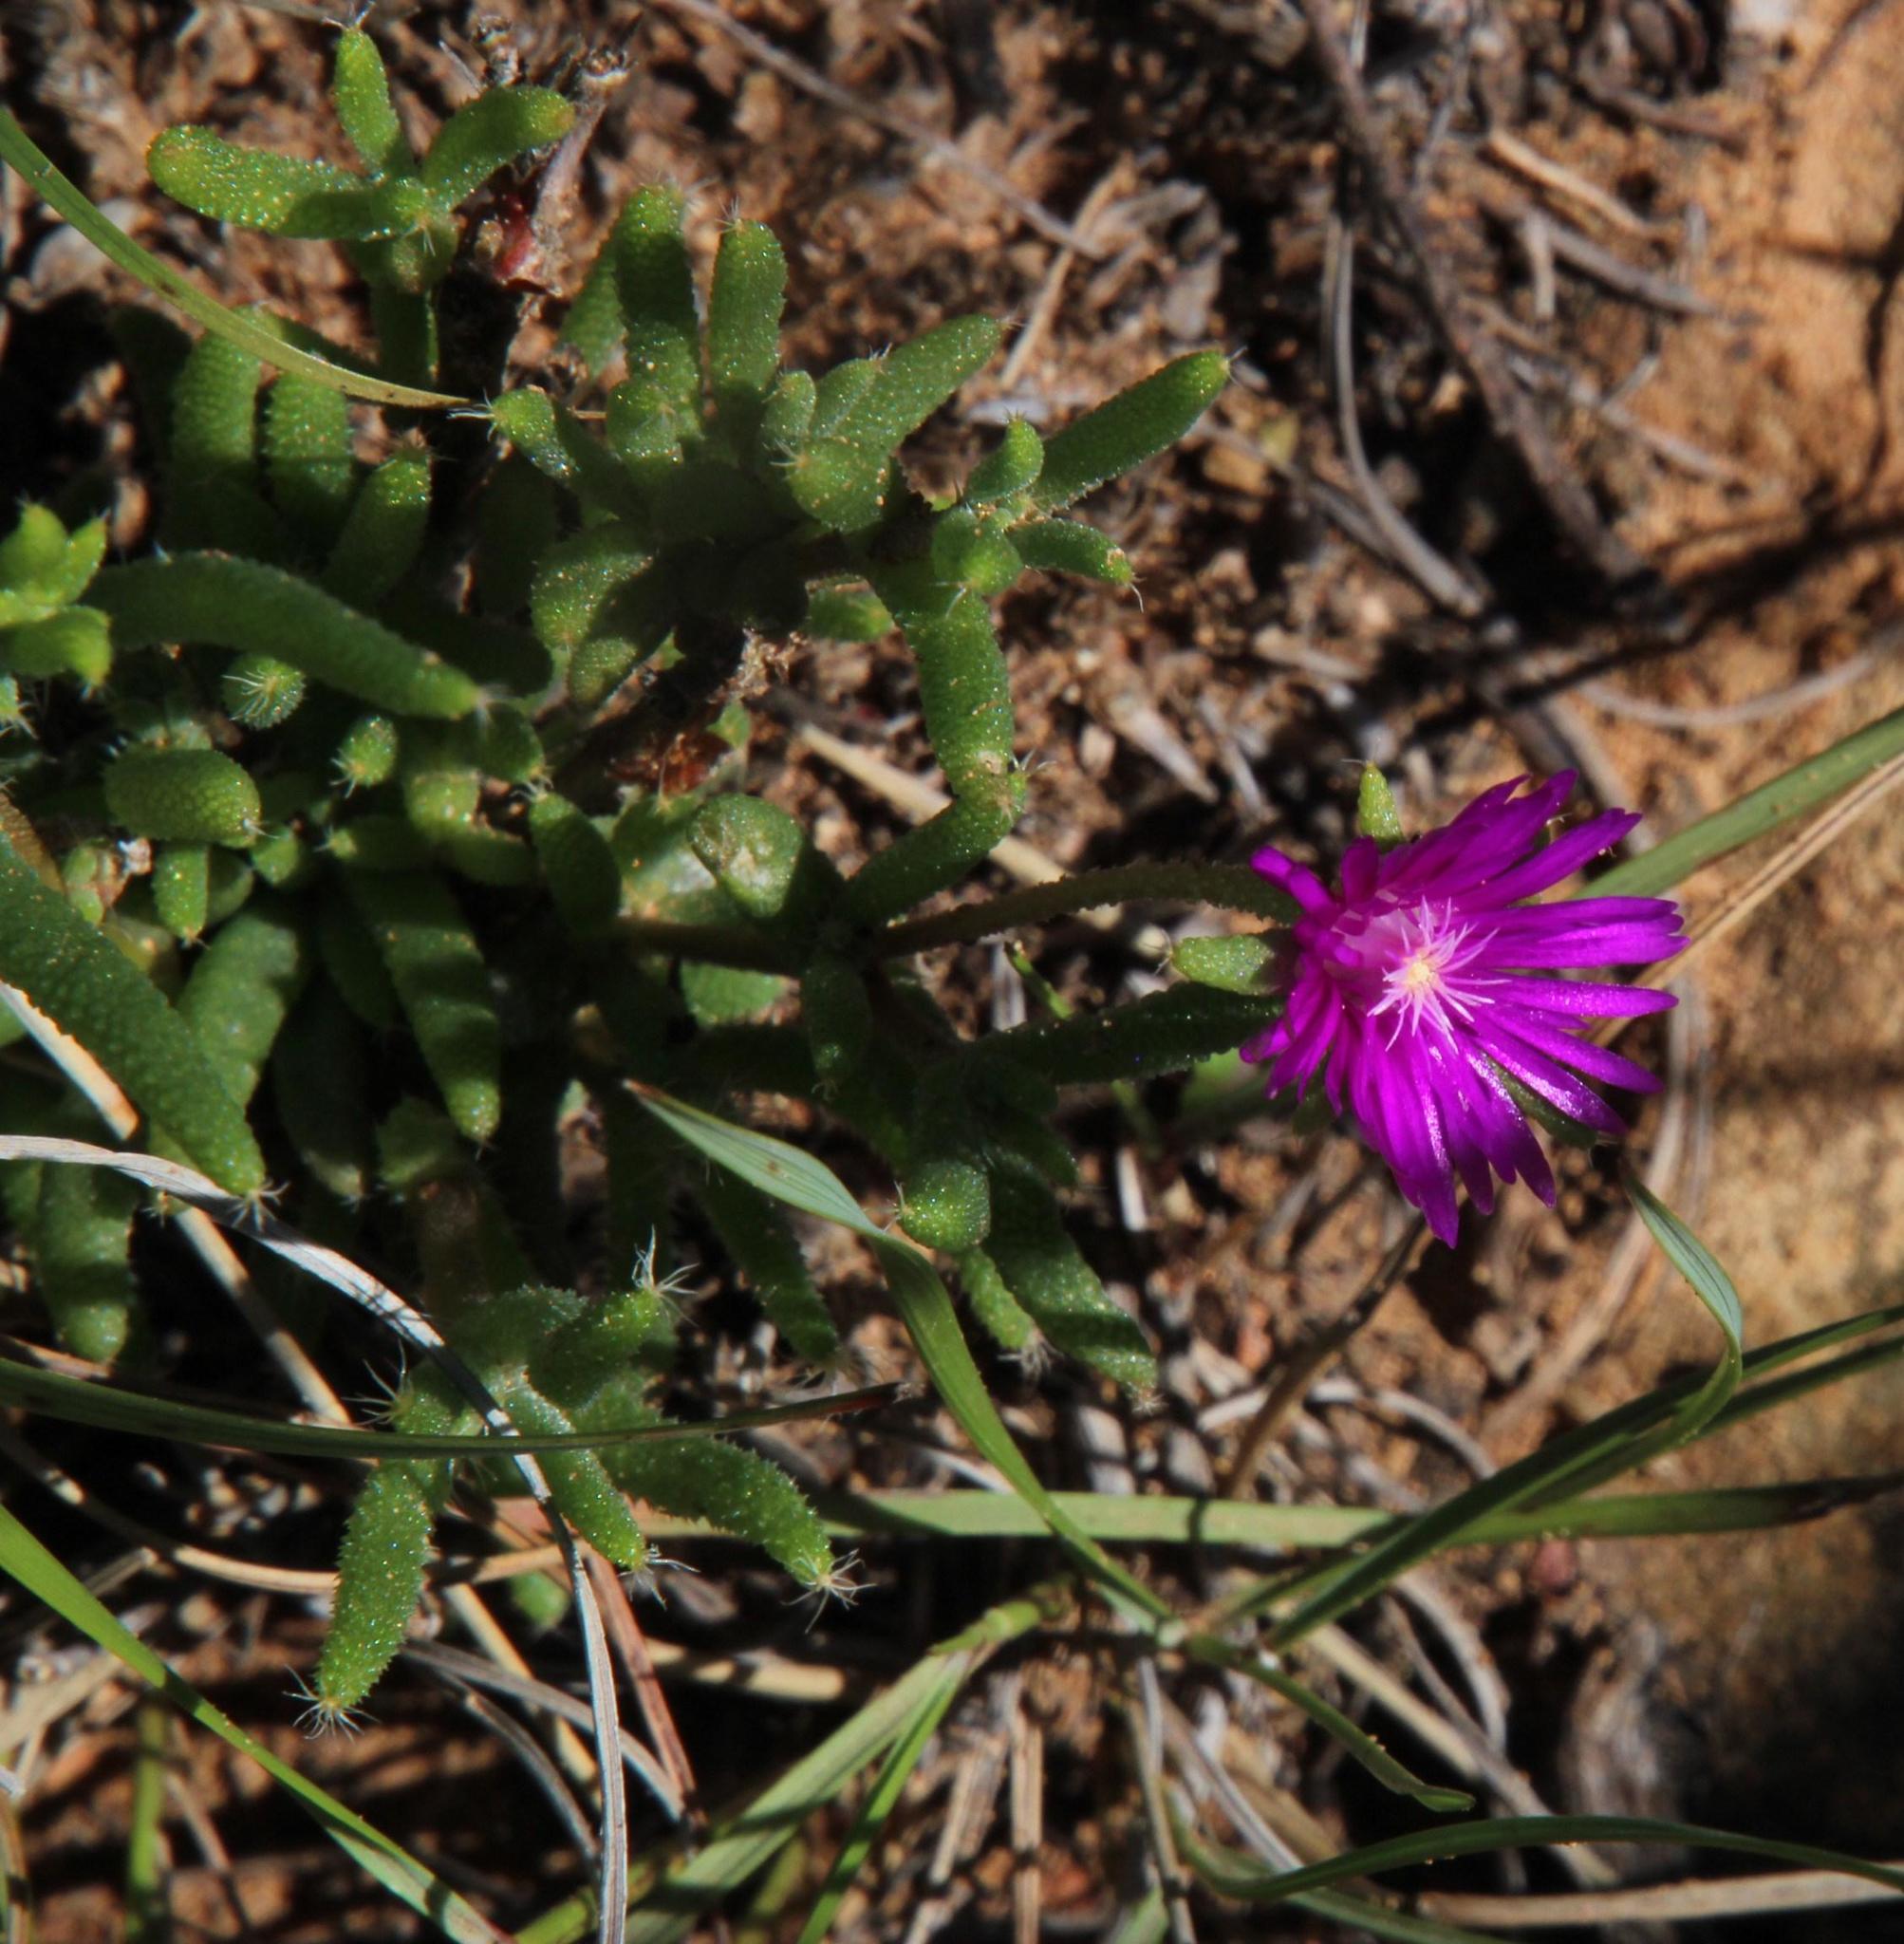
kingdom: Plantae
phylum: Tracheophyta
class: Magnoliopsida
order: Caryophyllales
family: Aizoaceae
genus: Trichodiadema
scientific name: Trichodiadema setuliferum
